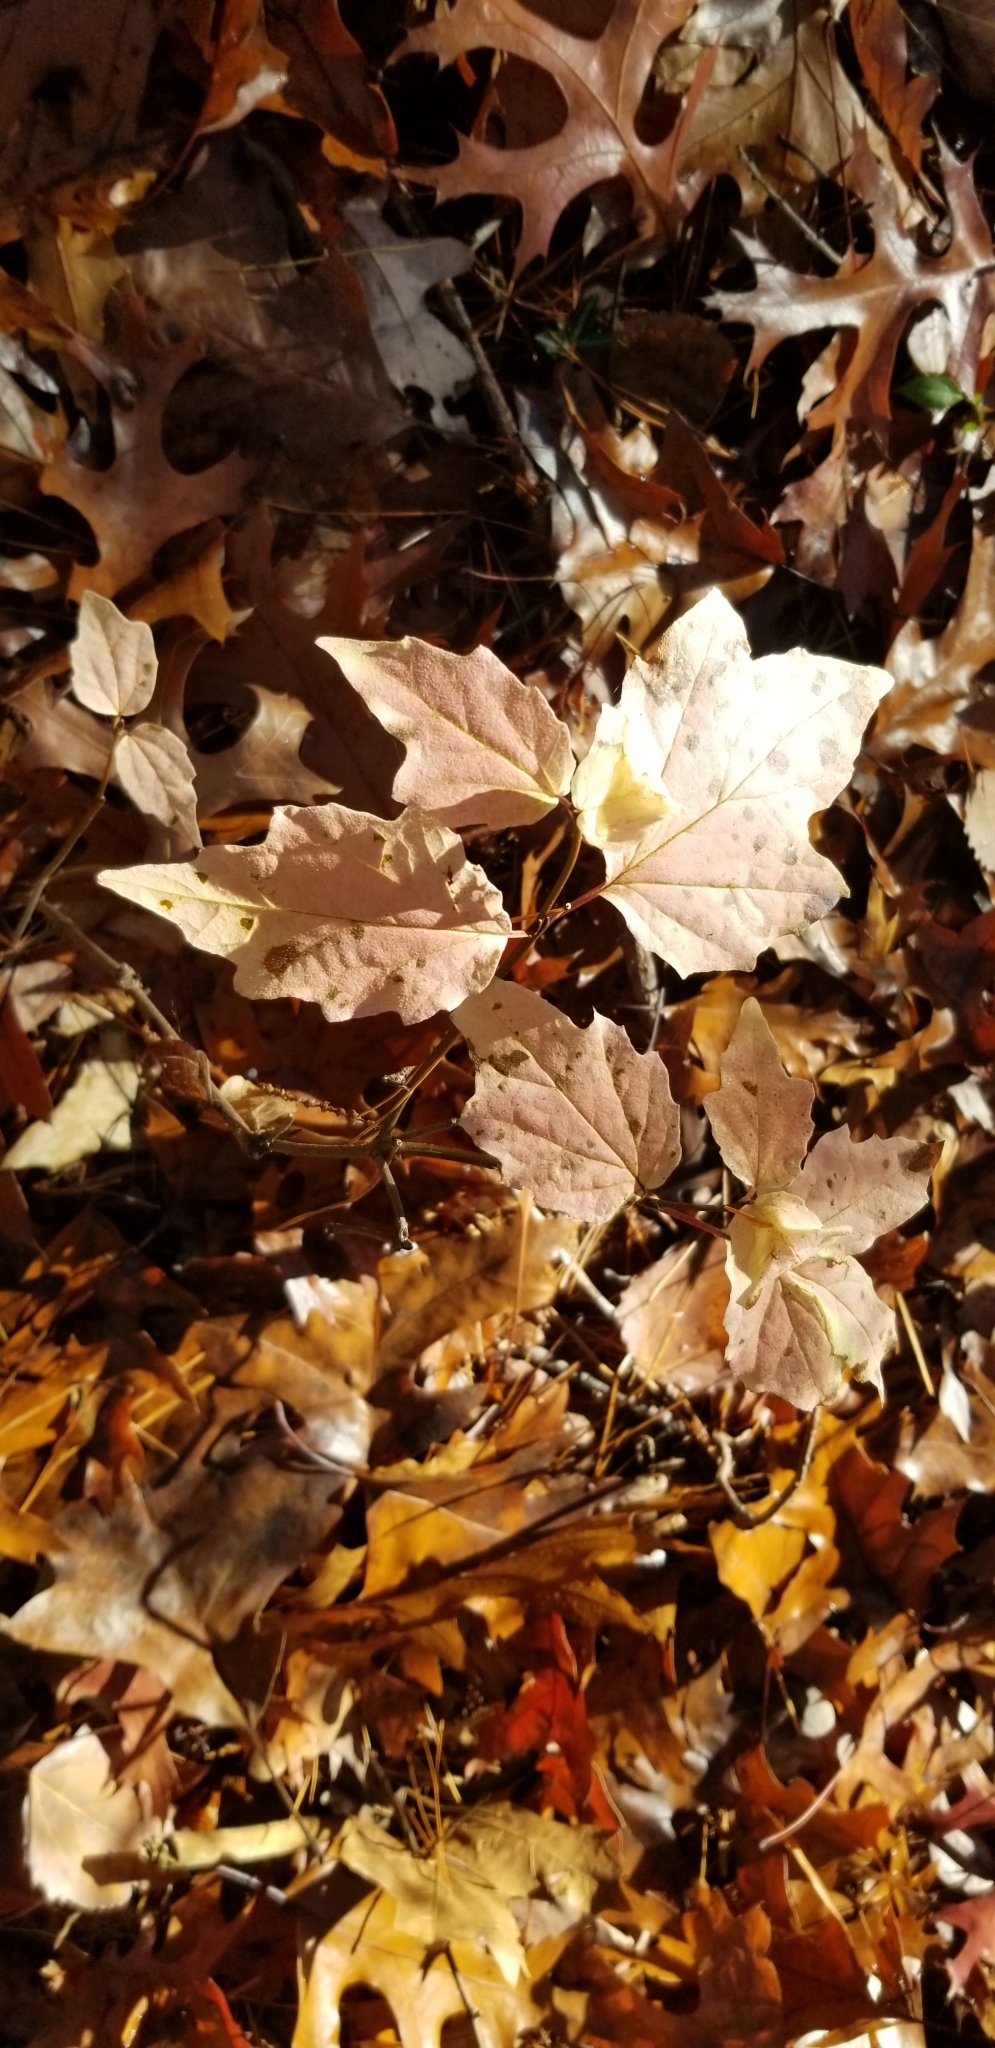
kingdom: Plantae
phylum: Tracheophyta
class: Magnoliopsida
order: Dipsacales
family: Viburnaceae
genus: Viburnum
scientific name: Viburnum acerifolium
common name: Dockmackie
